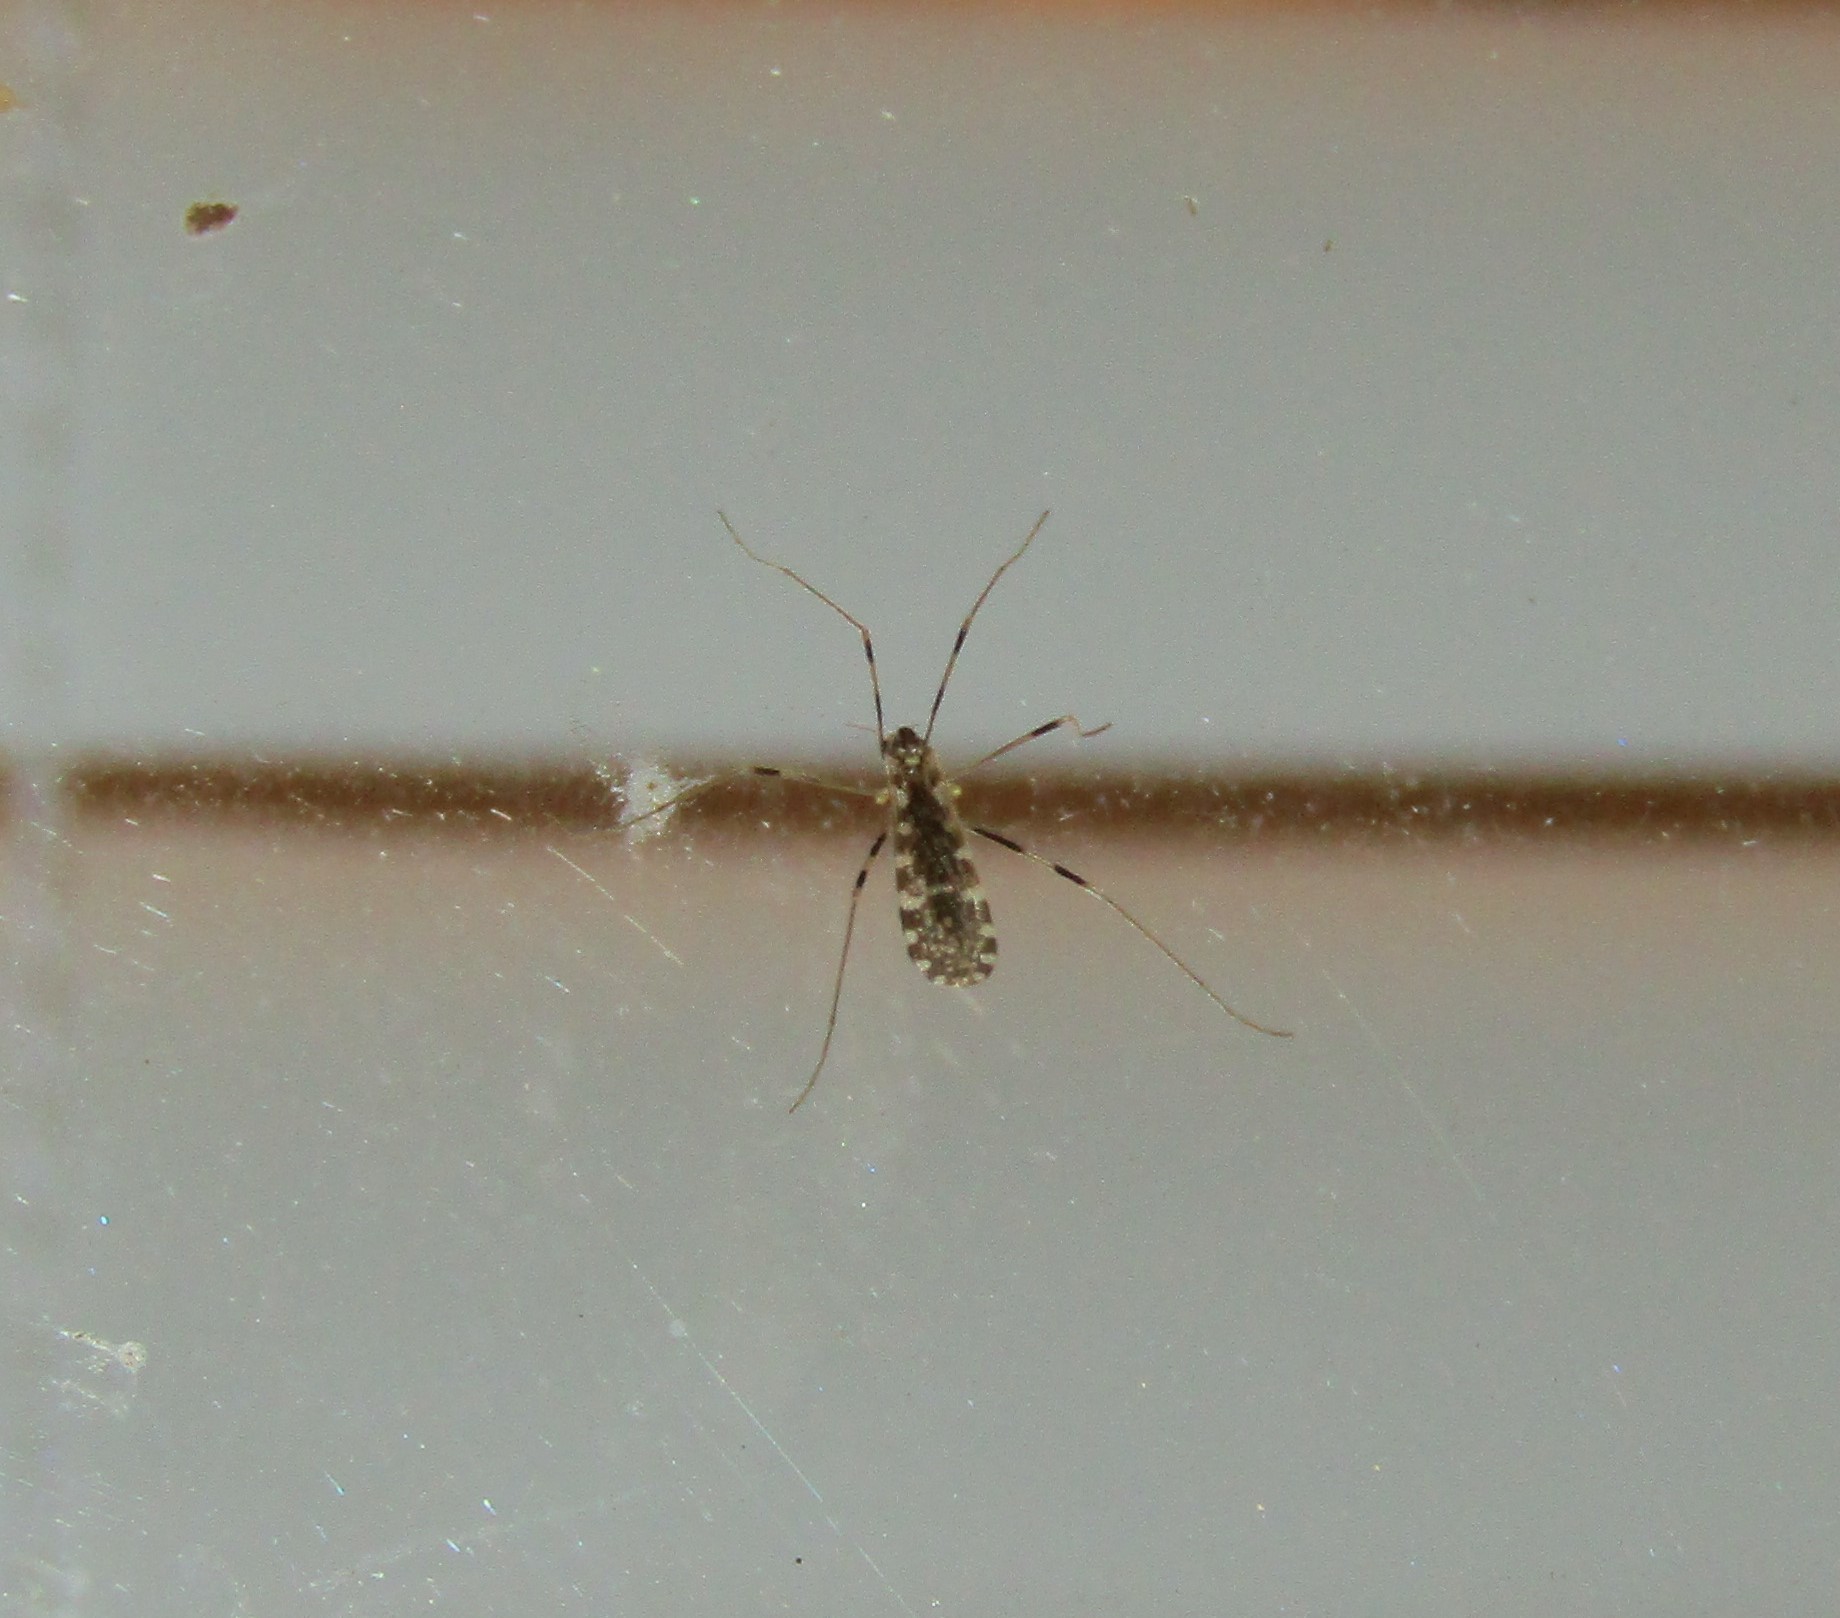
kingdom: Animalia
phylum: Arthropoda
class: Insecta
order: Diptera
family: Limoniidae
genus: Erioptera
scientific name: Erioptera caliptera
